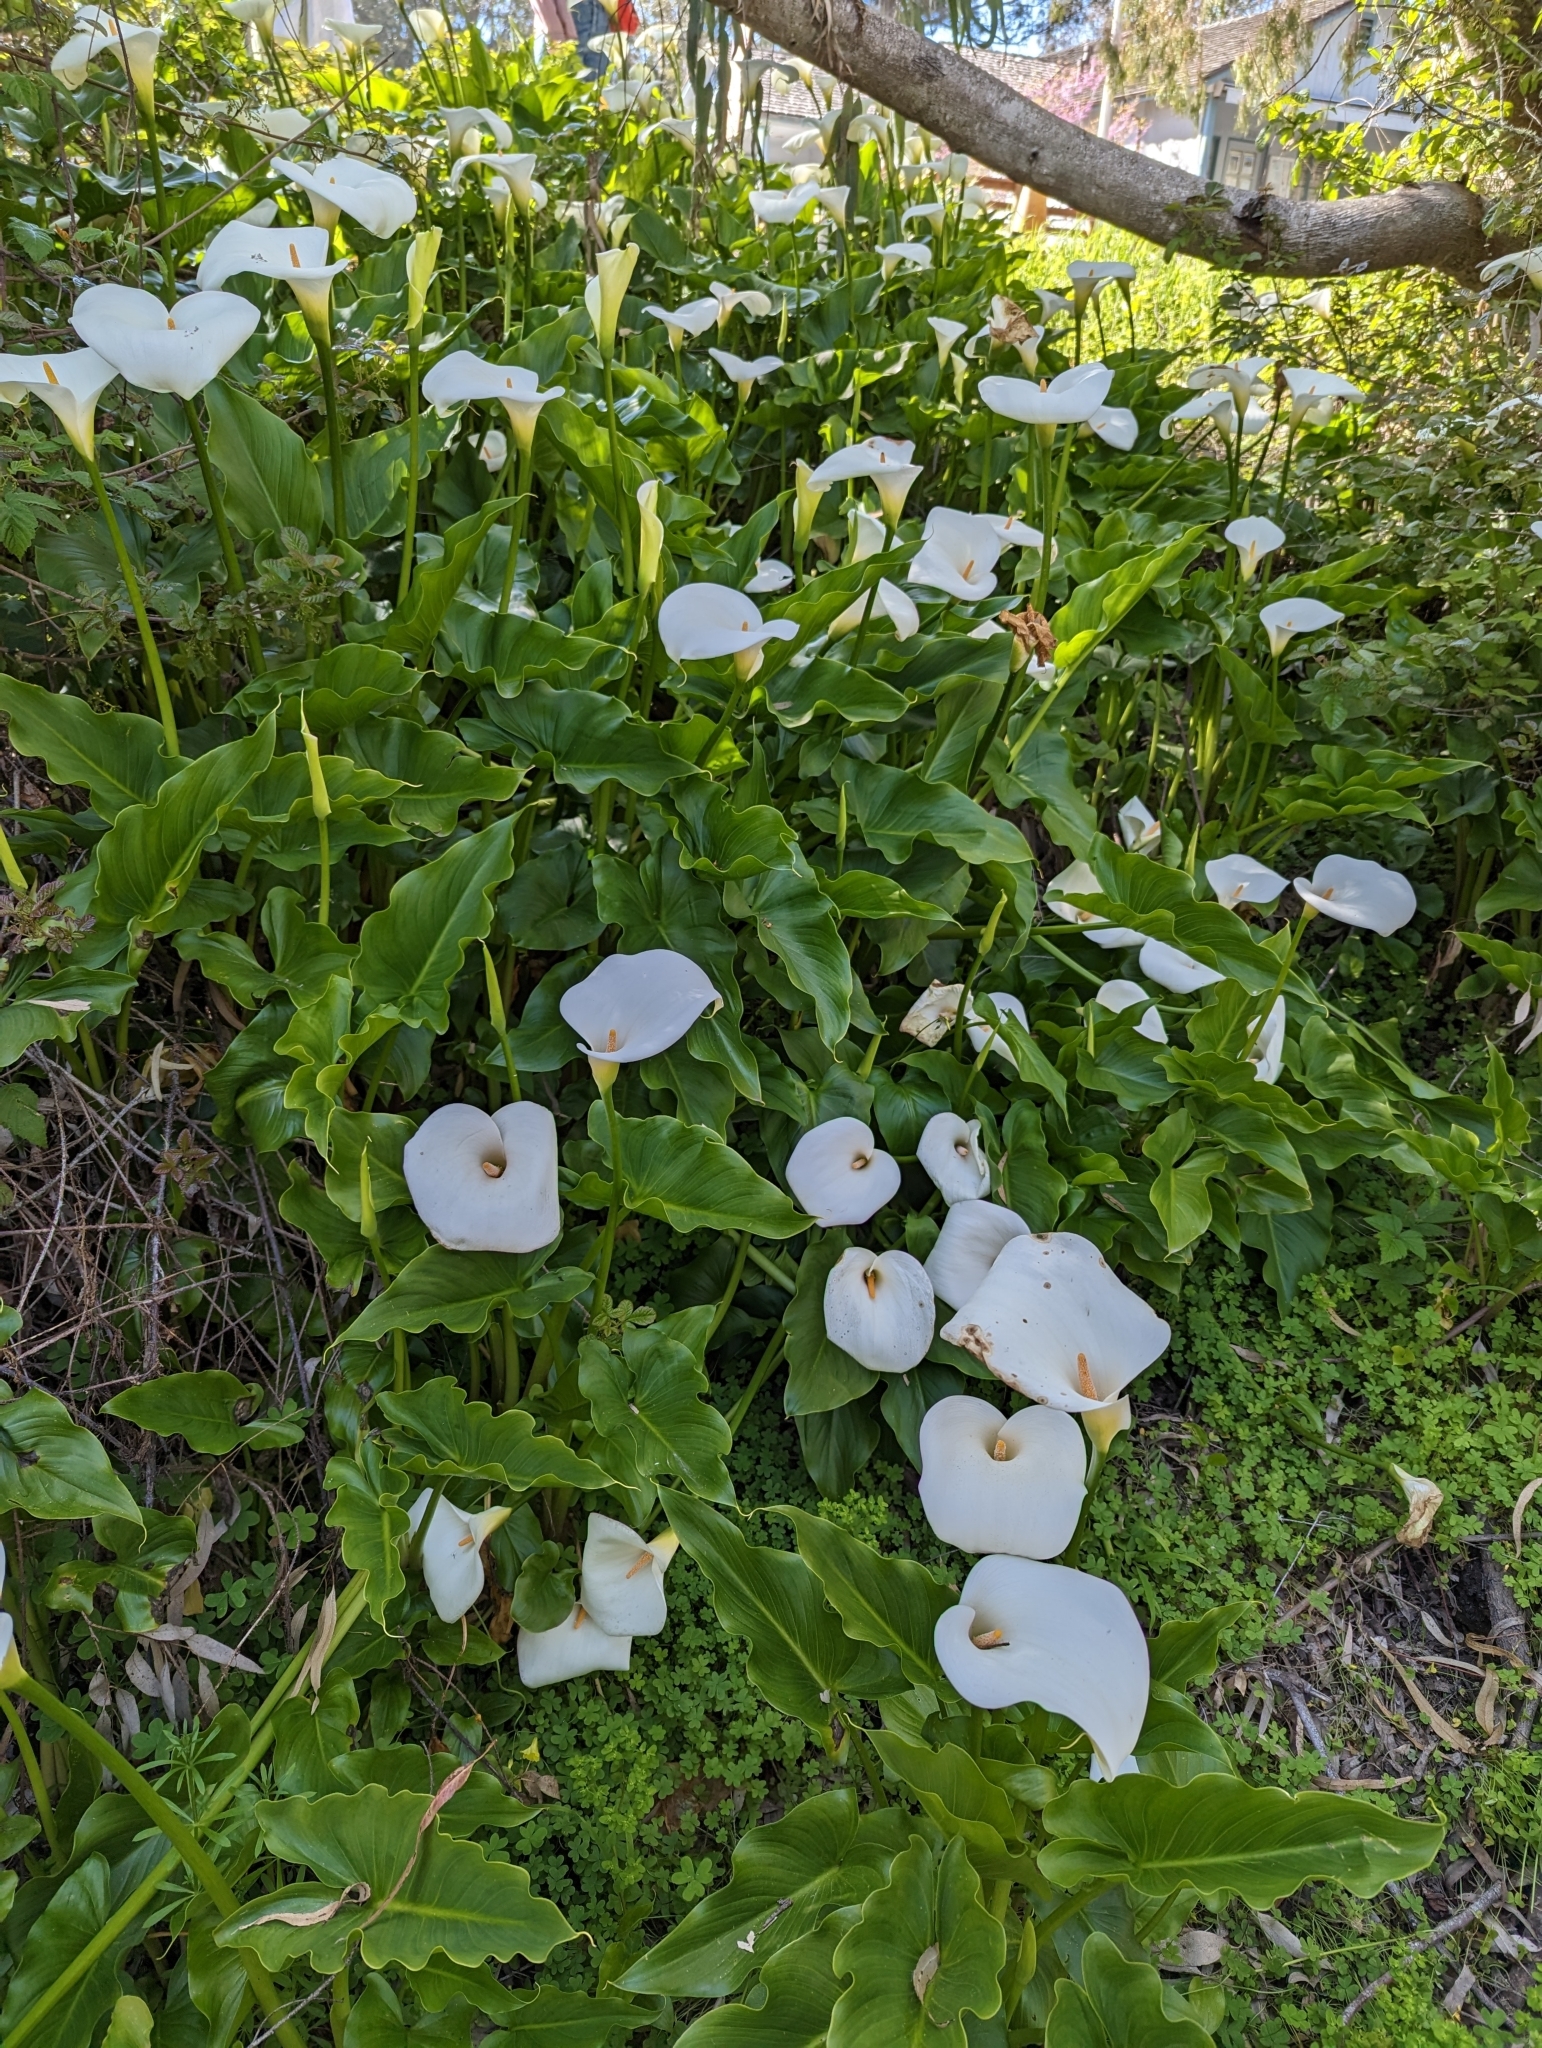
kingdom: Plantae
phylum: Tracheophyta
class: Liliopsida
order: Alismatales
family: Araceae
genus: Zantedeschia
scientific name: Zantedeschia aethiopica
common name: Altar-lily
